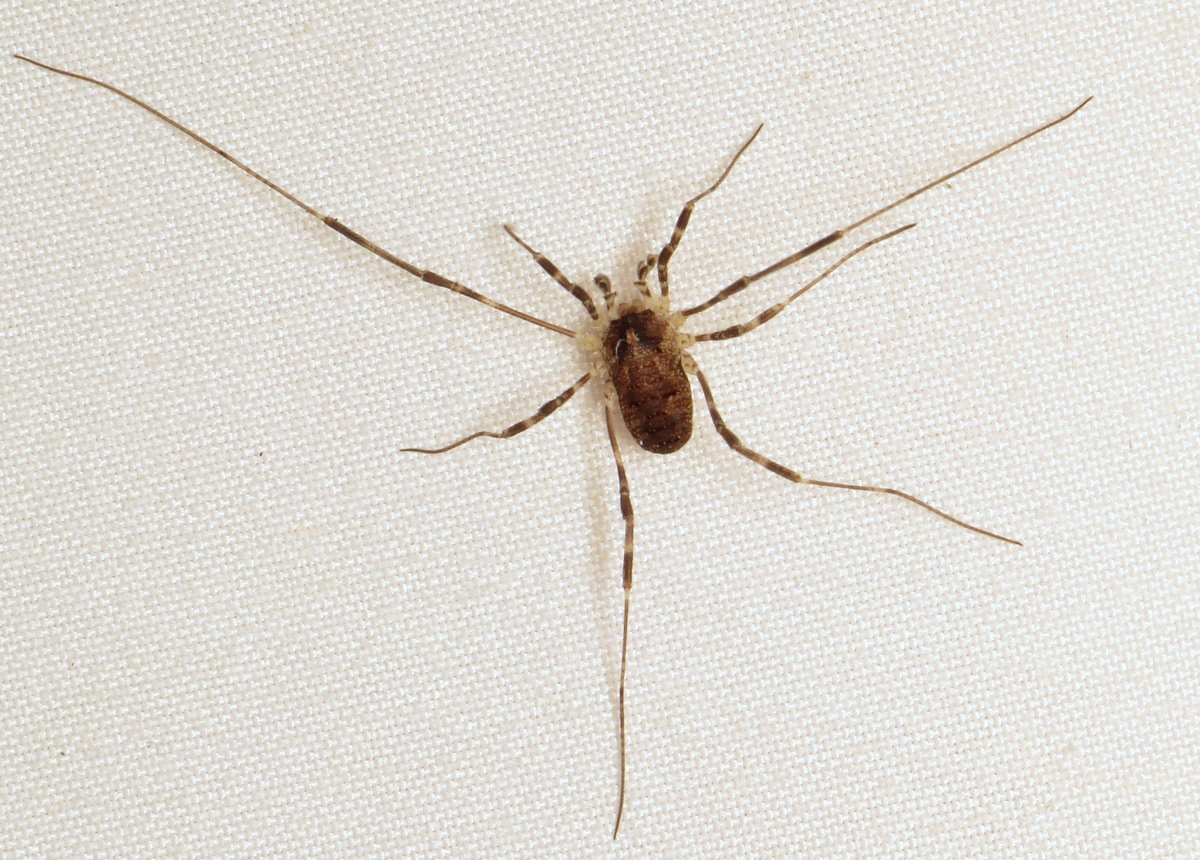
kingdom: Animalia
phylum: Arthropoda
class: Arachnida
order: Opiliones
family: Phalangiidae
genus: Odiellus
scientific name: Odiellus pictus
